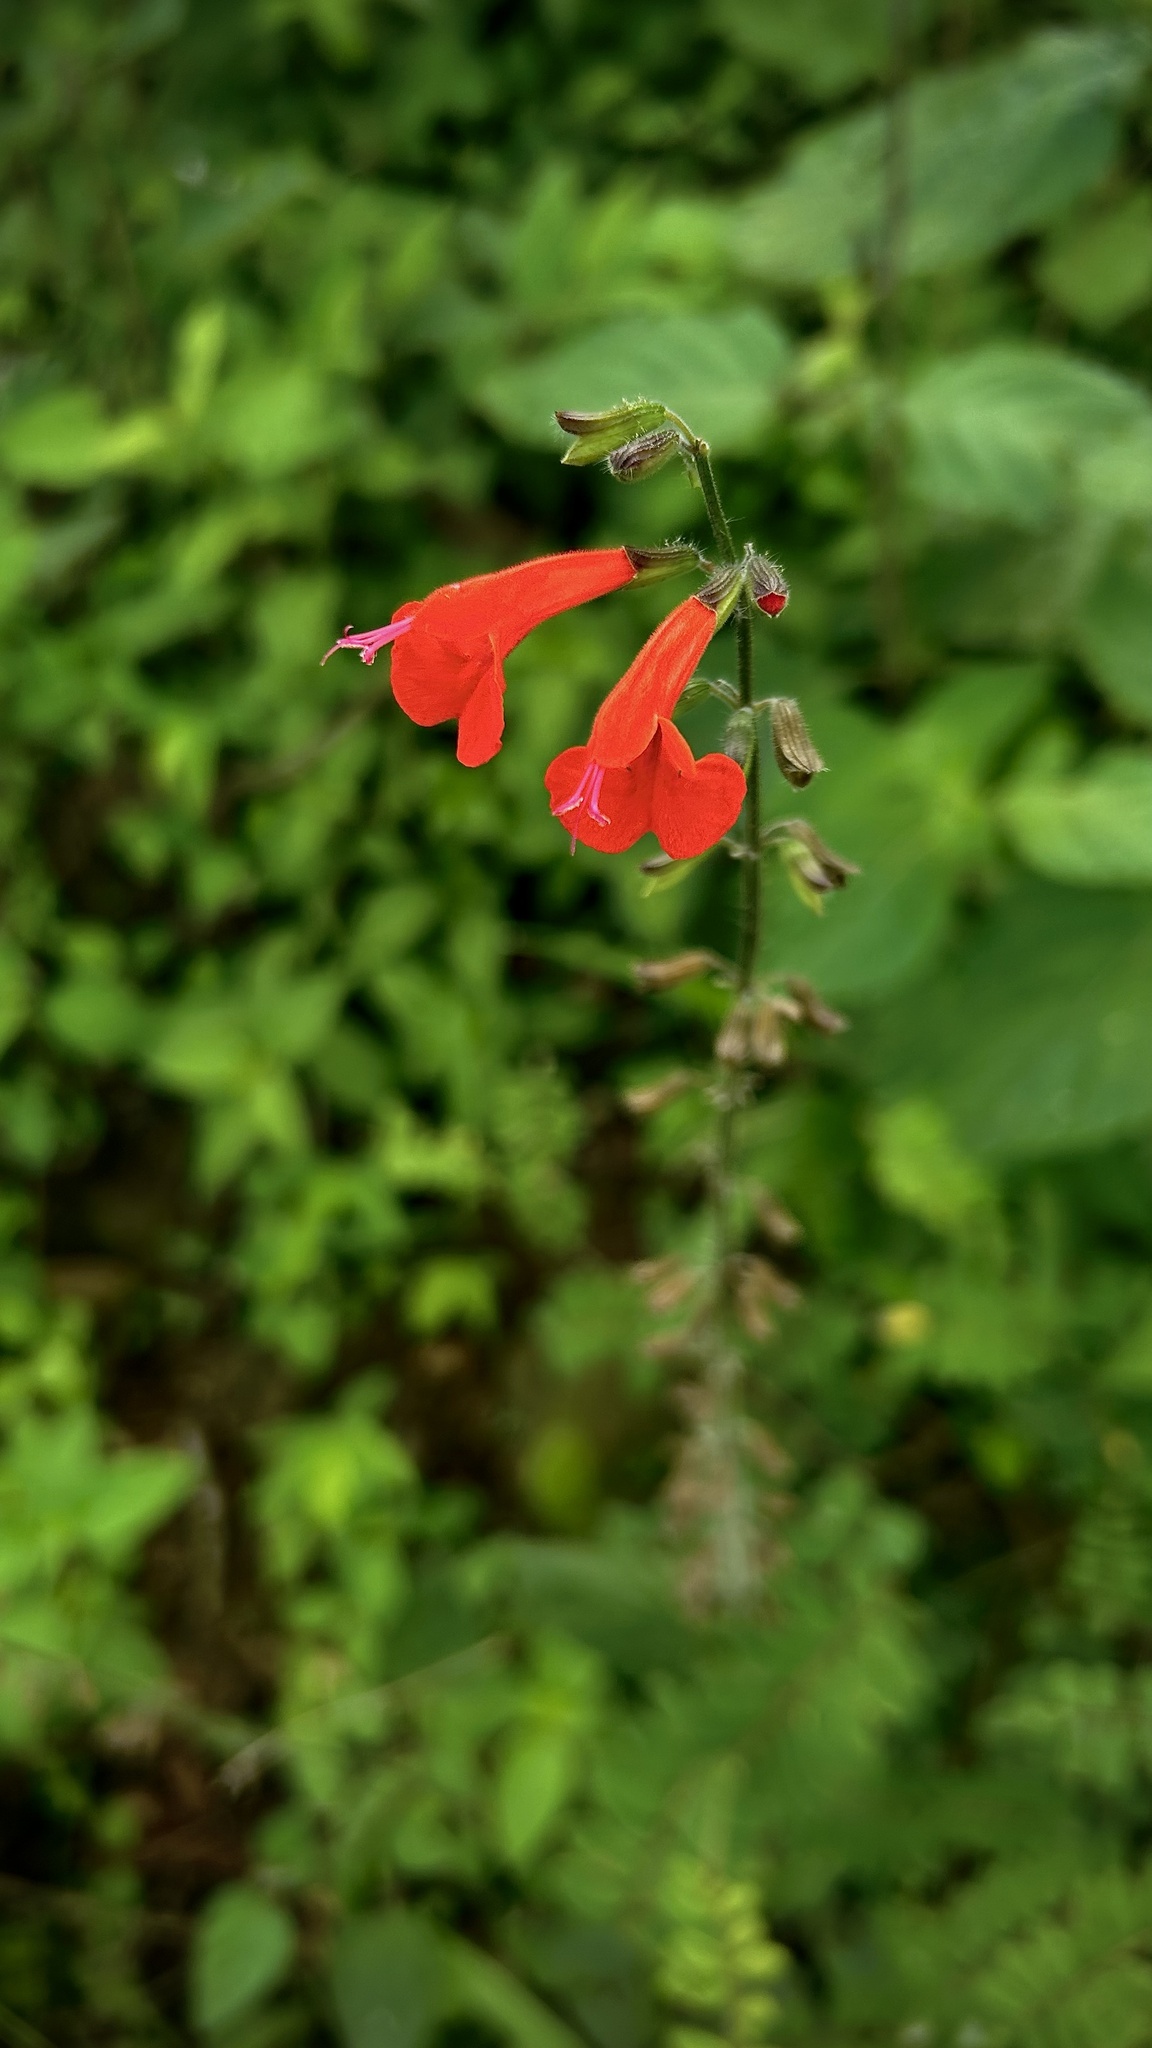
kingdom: Plantae
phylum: Tracheophyta
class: Magnoliopsida
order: Lamiales
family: Lamiaceae
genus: Salvia
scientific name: Salvia coccinea
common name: Blood sage
